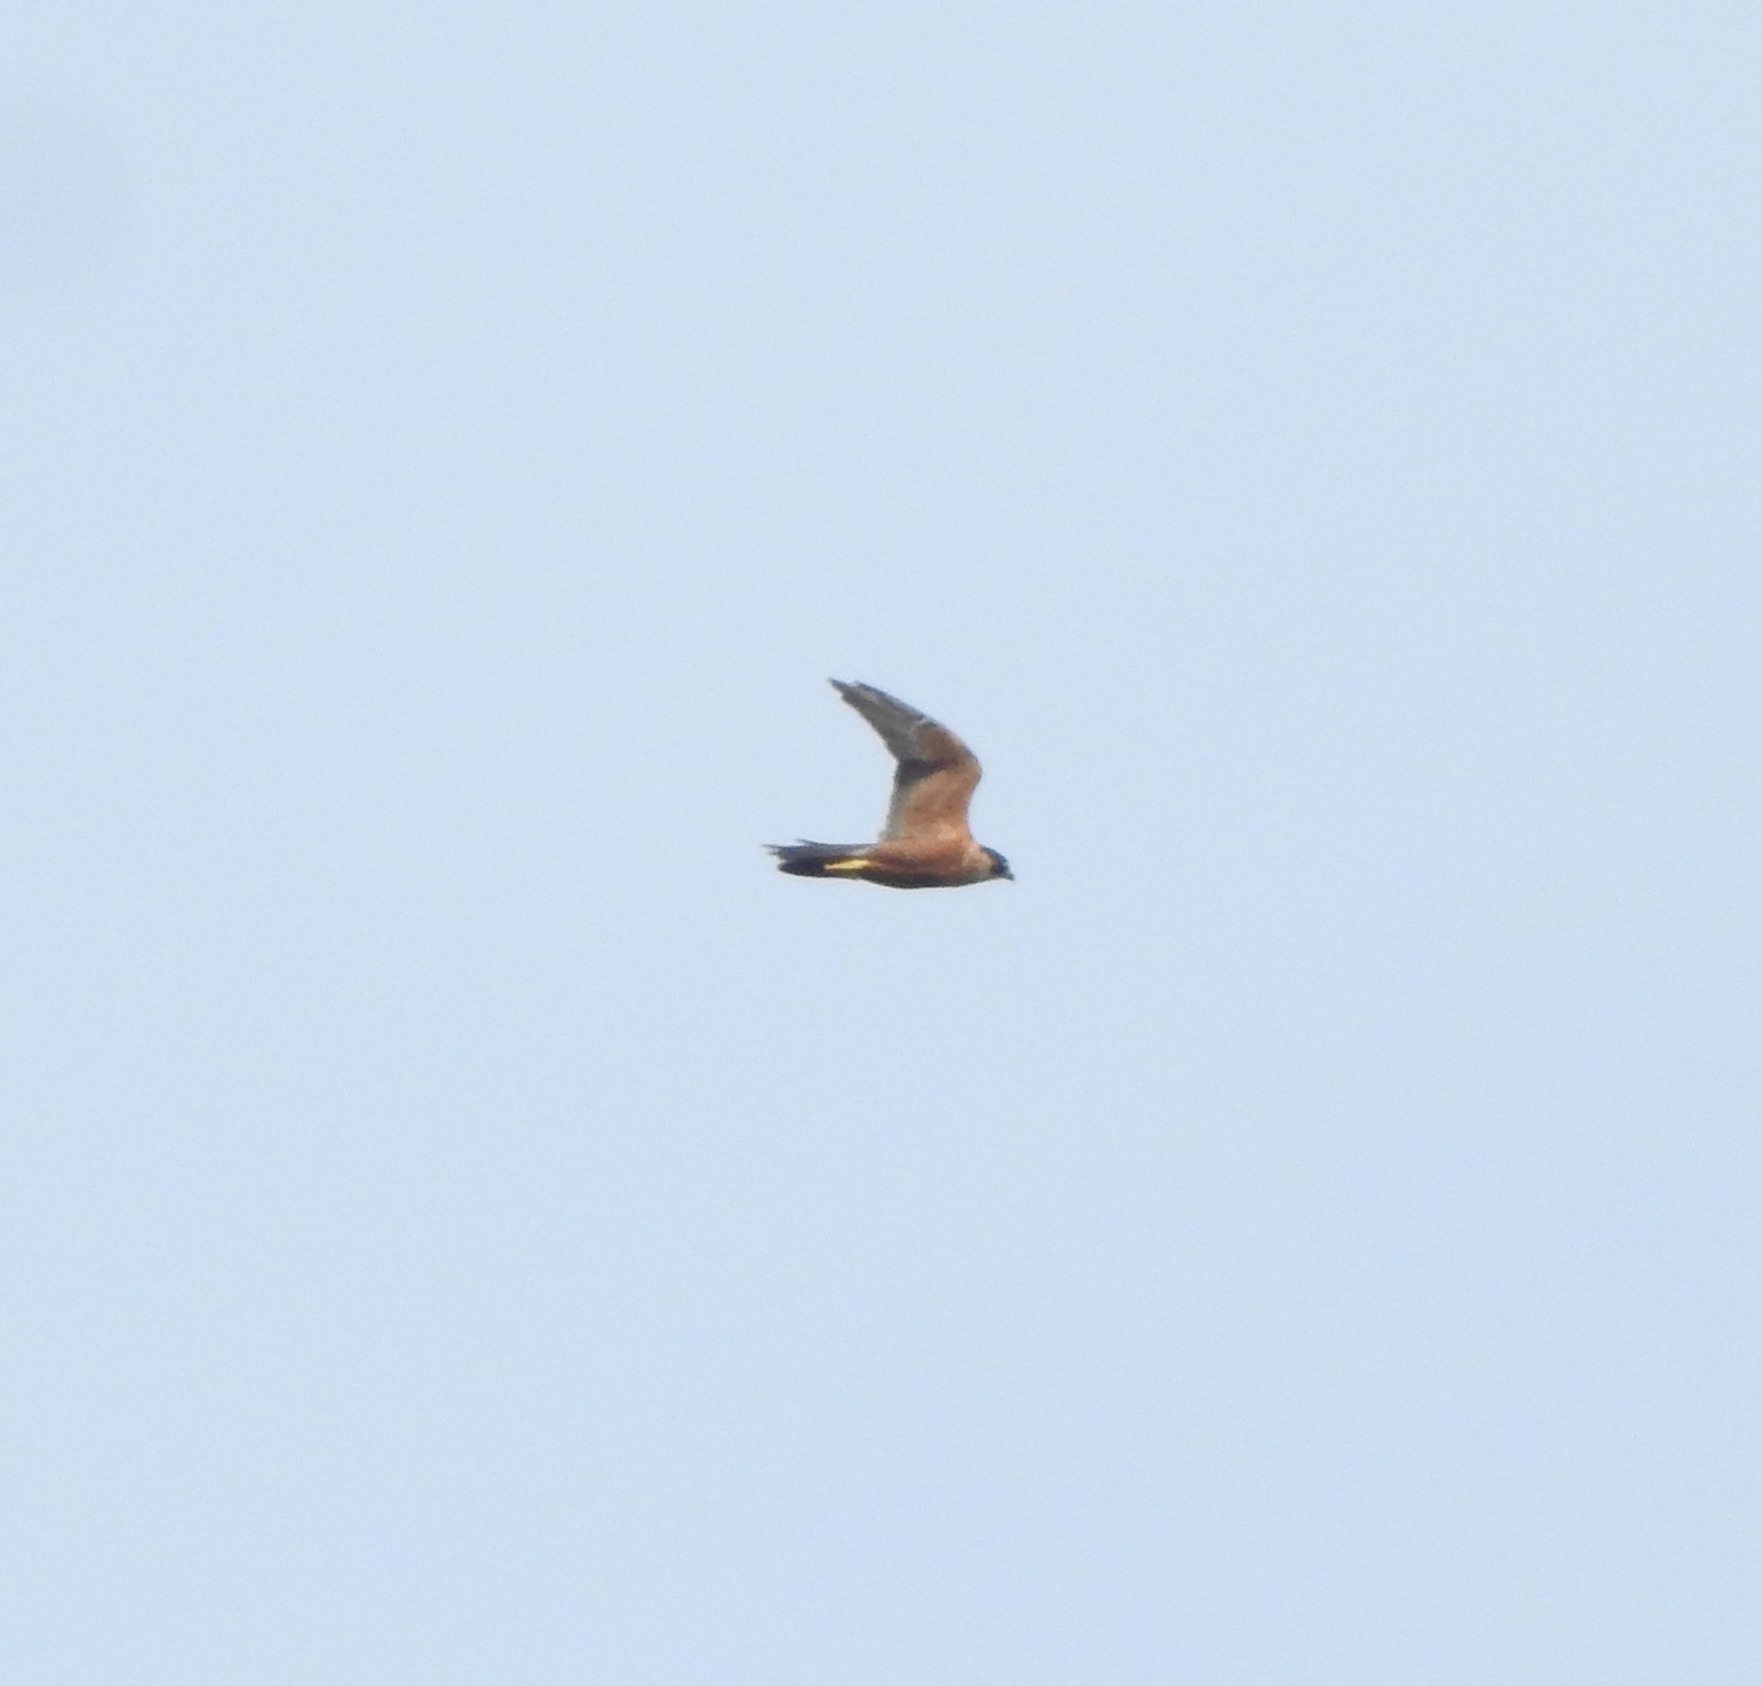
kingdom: Animalia
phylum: Chordata
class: Aves
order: Falconiformes
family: Falconidae
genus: Falco
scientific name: Falco peregrinus
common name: Peregrine falcon
